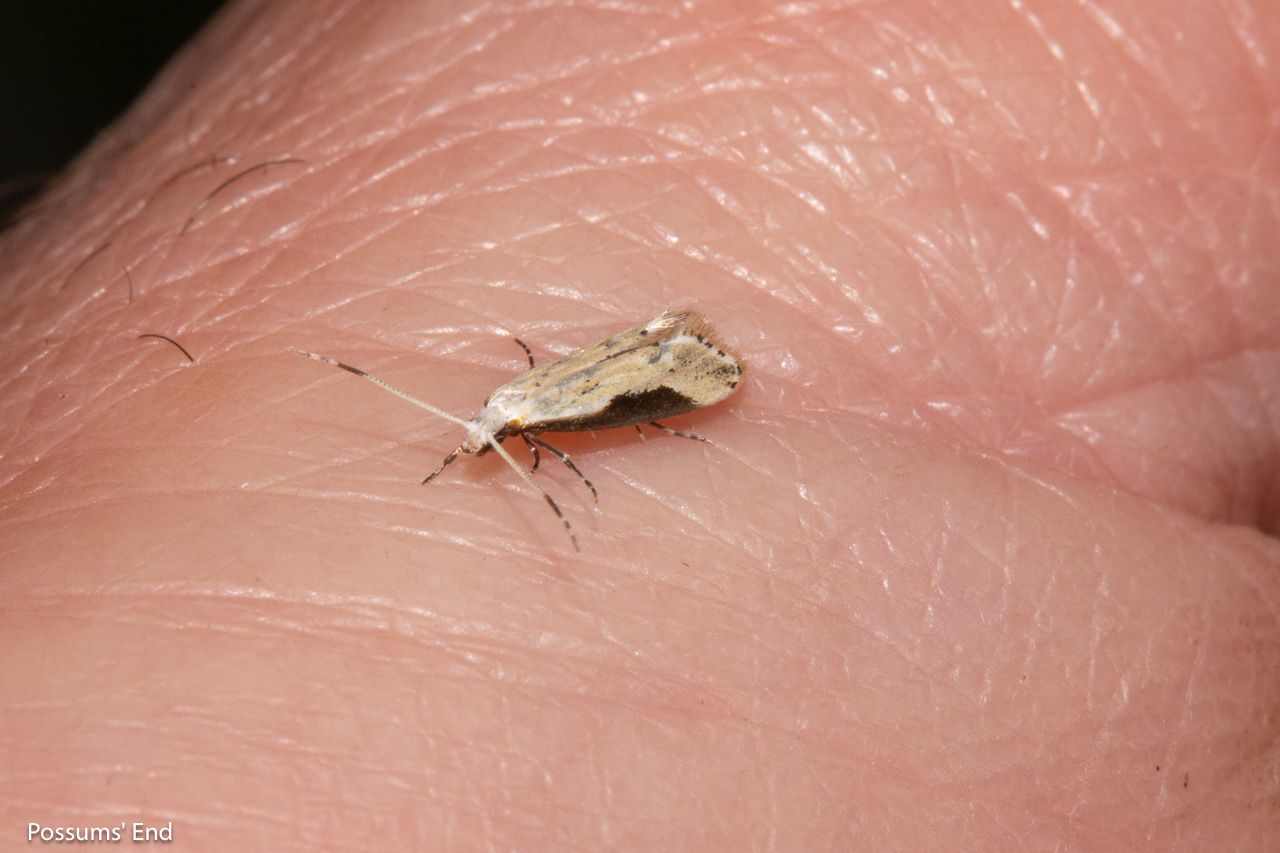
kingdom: Animalia
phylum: Arthropoda
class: Insecta
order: Lepidoptera
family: Tineidae
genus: Sagephora
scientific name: Sagephora phortegella
